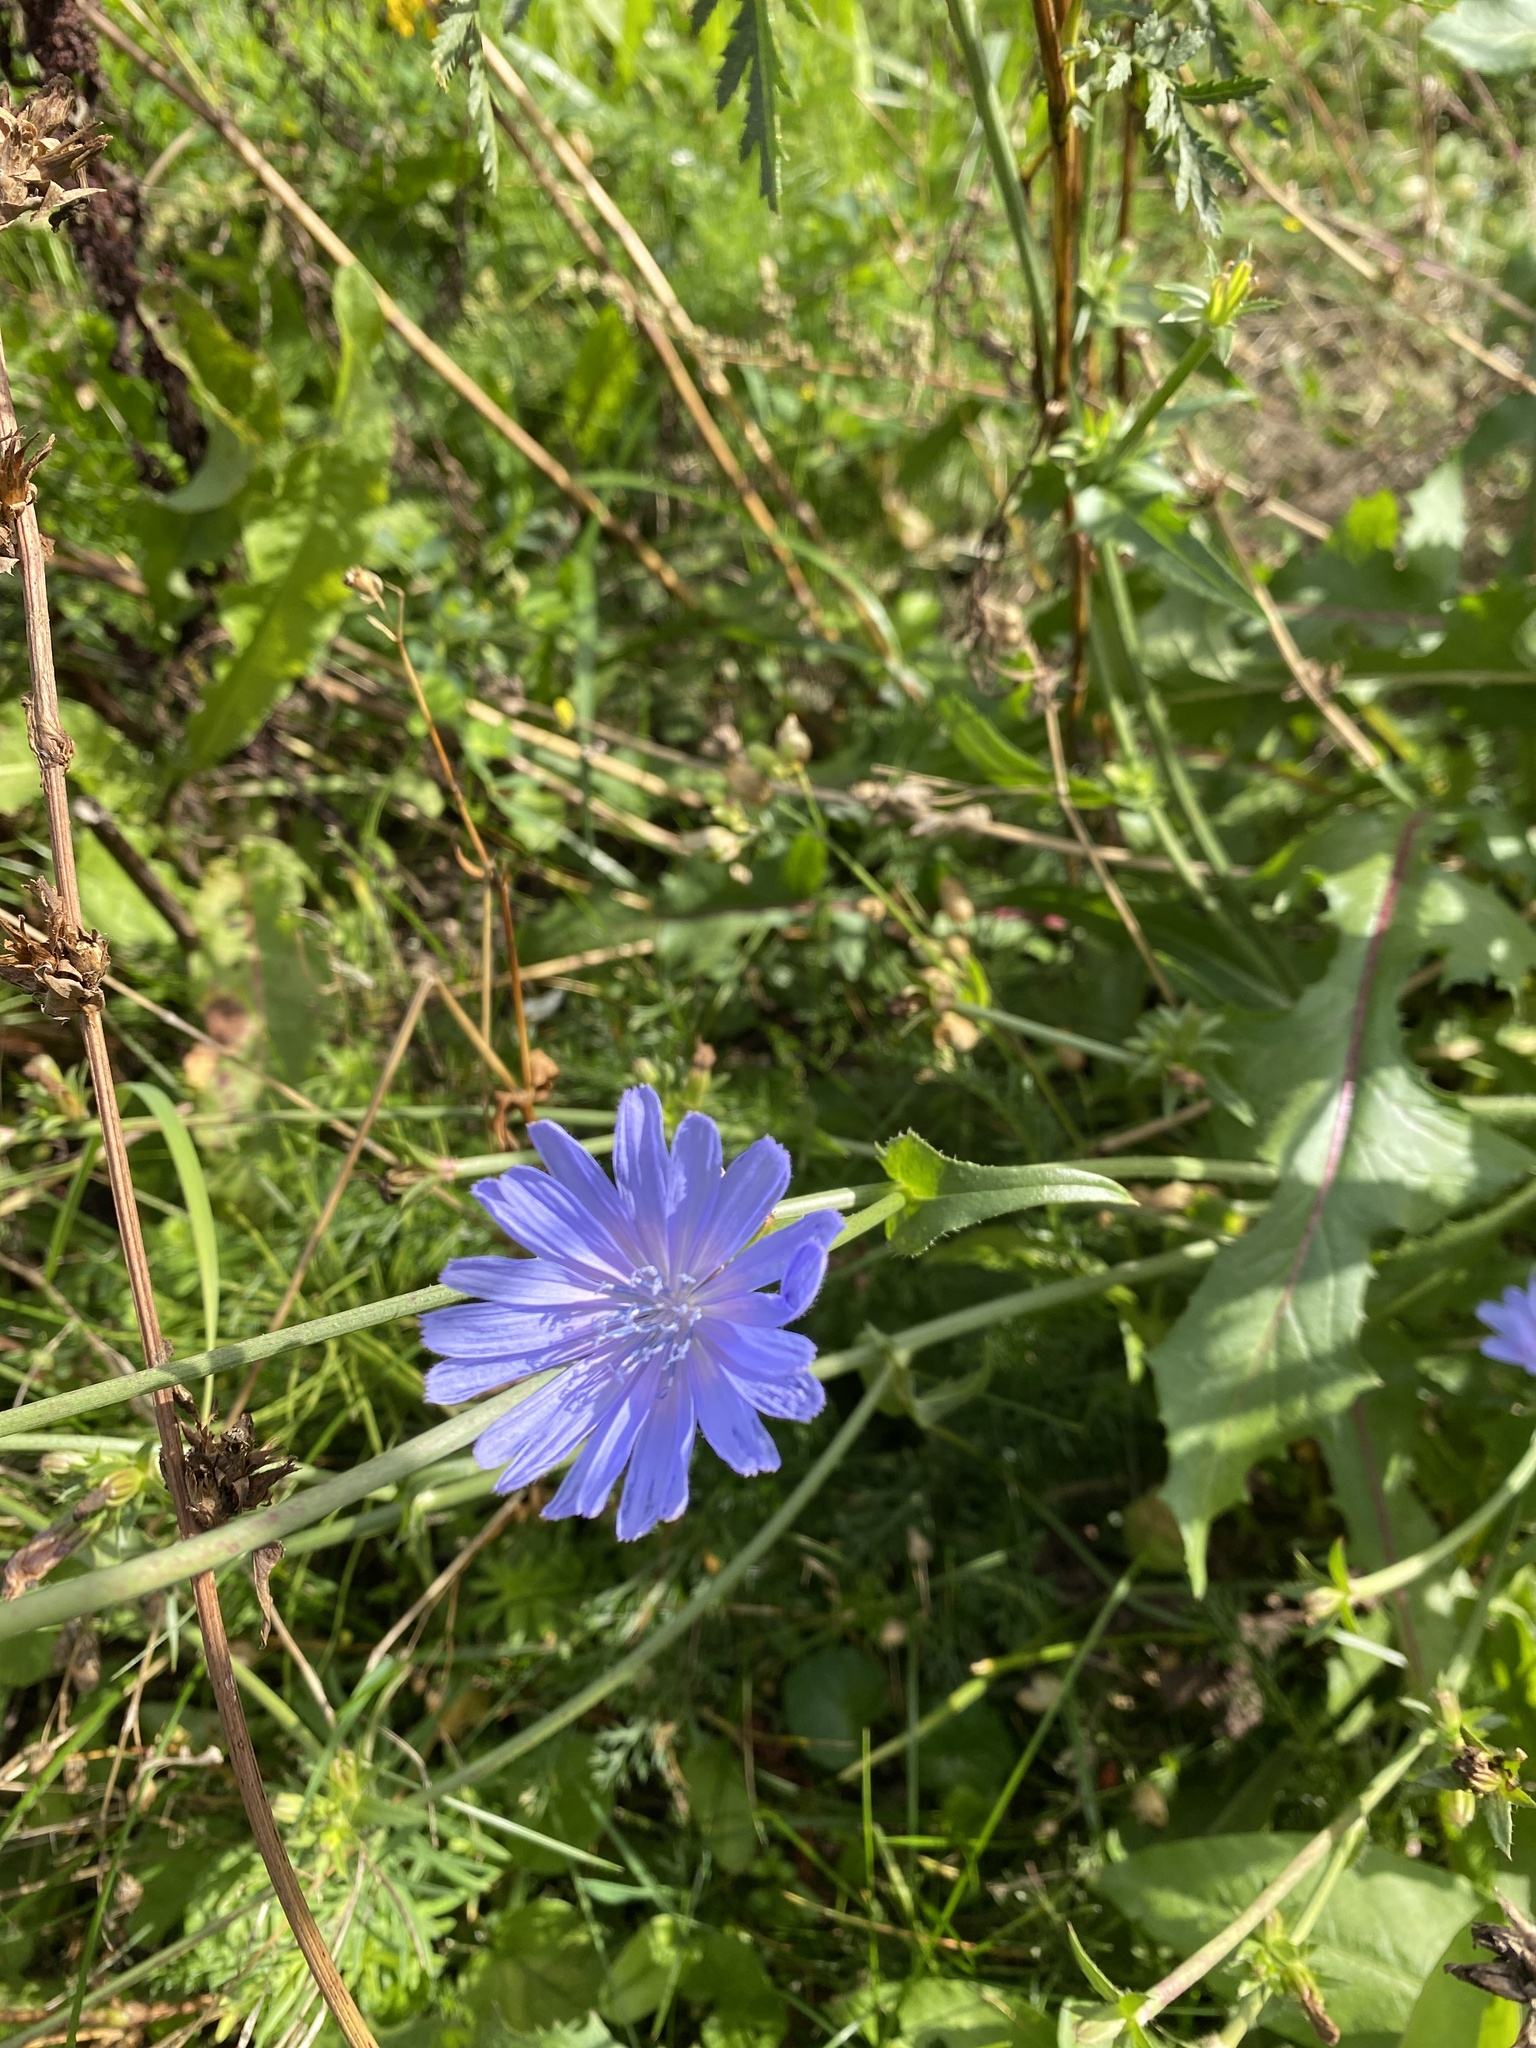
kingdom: Plantae
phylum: Tracheophyta
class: Magnoliopsida
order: Asterales
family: Asteraceae
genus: Cichorium
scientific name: Cichorium intybus
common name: Chicory
